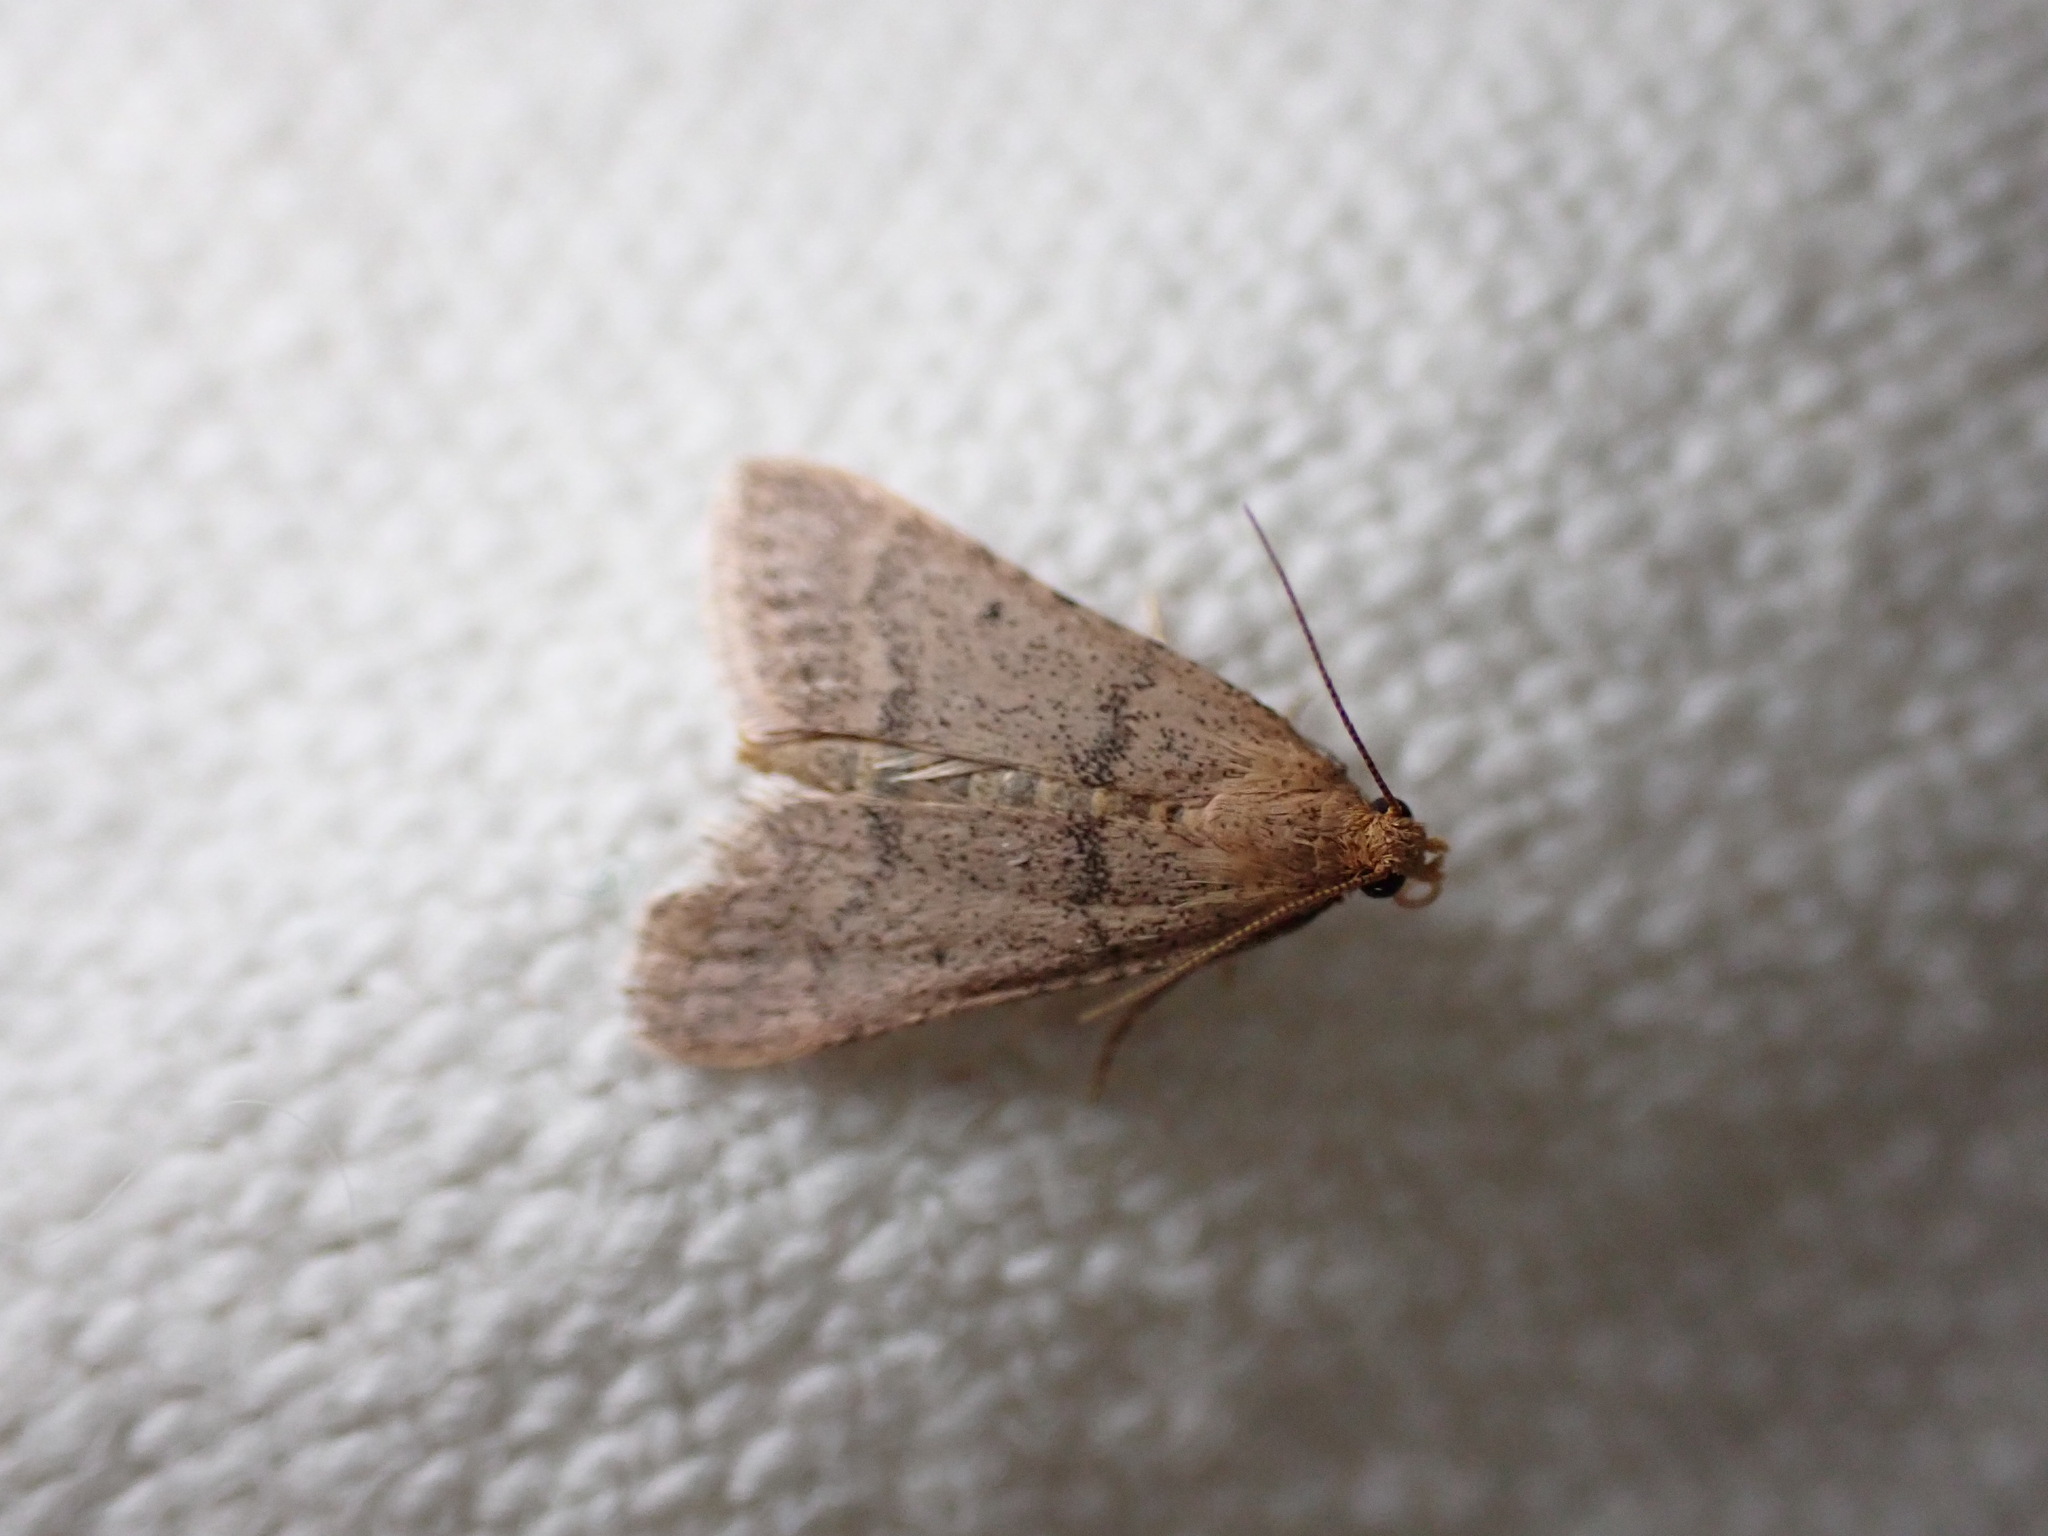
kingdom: Animalia
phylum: Arthropoda
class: Insecta
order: Lepidoptera
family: Pyralidae
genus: Bostra
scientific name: Bostra obsoletalis
